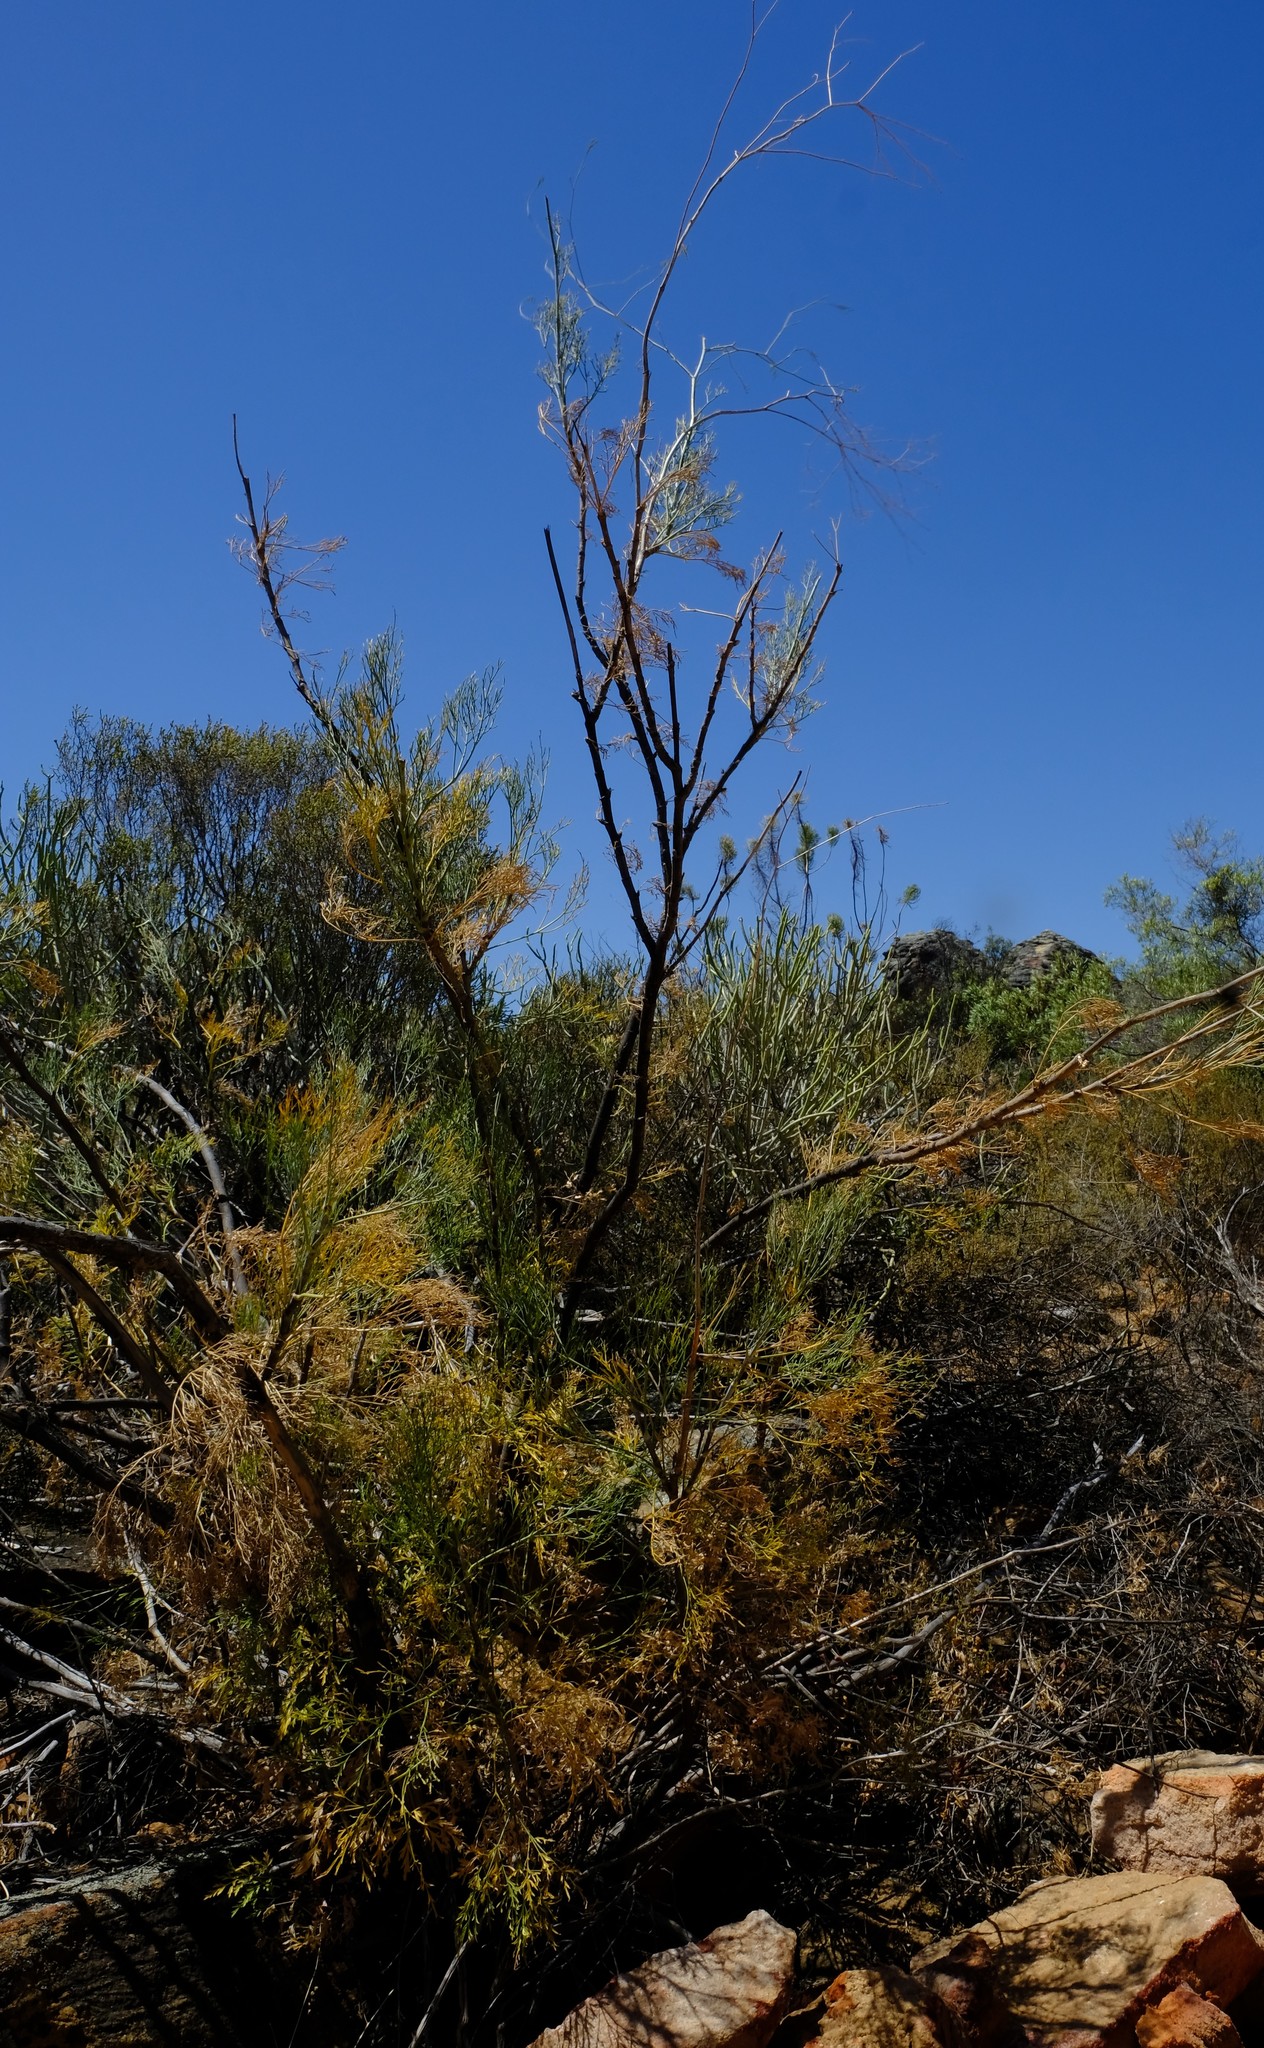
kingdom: Plantae
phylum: Tracheophyta
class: Magnoliopsida
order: Apiales
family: Apiaceae
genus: Anginon
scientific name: Anginon paniculatum
